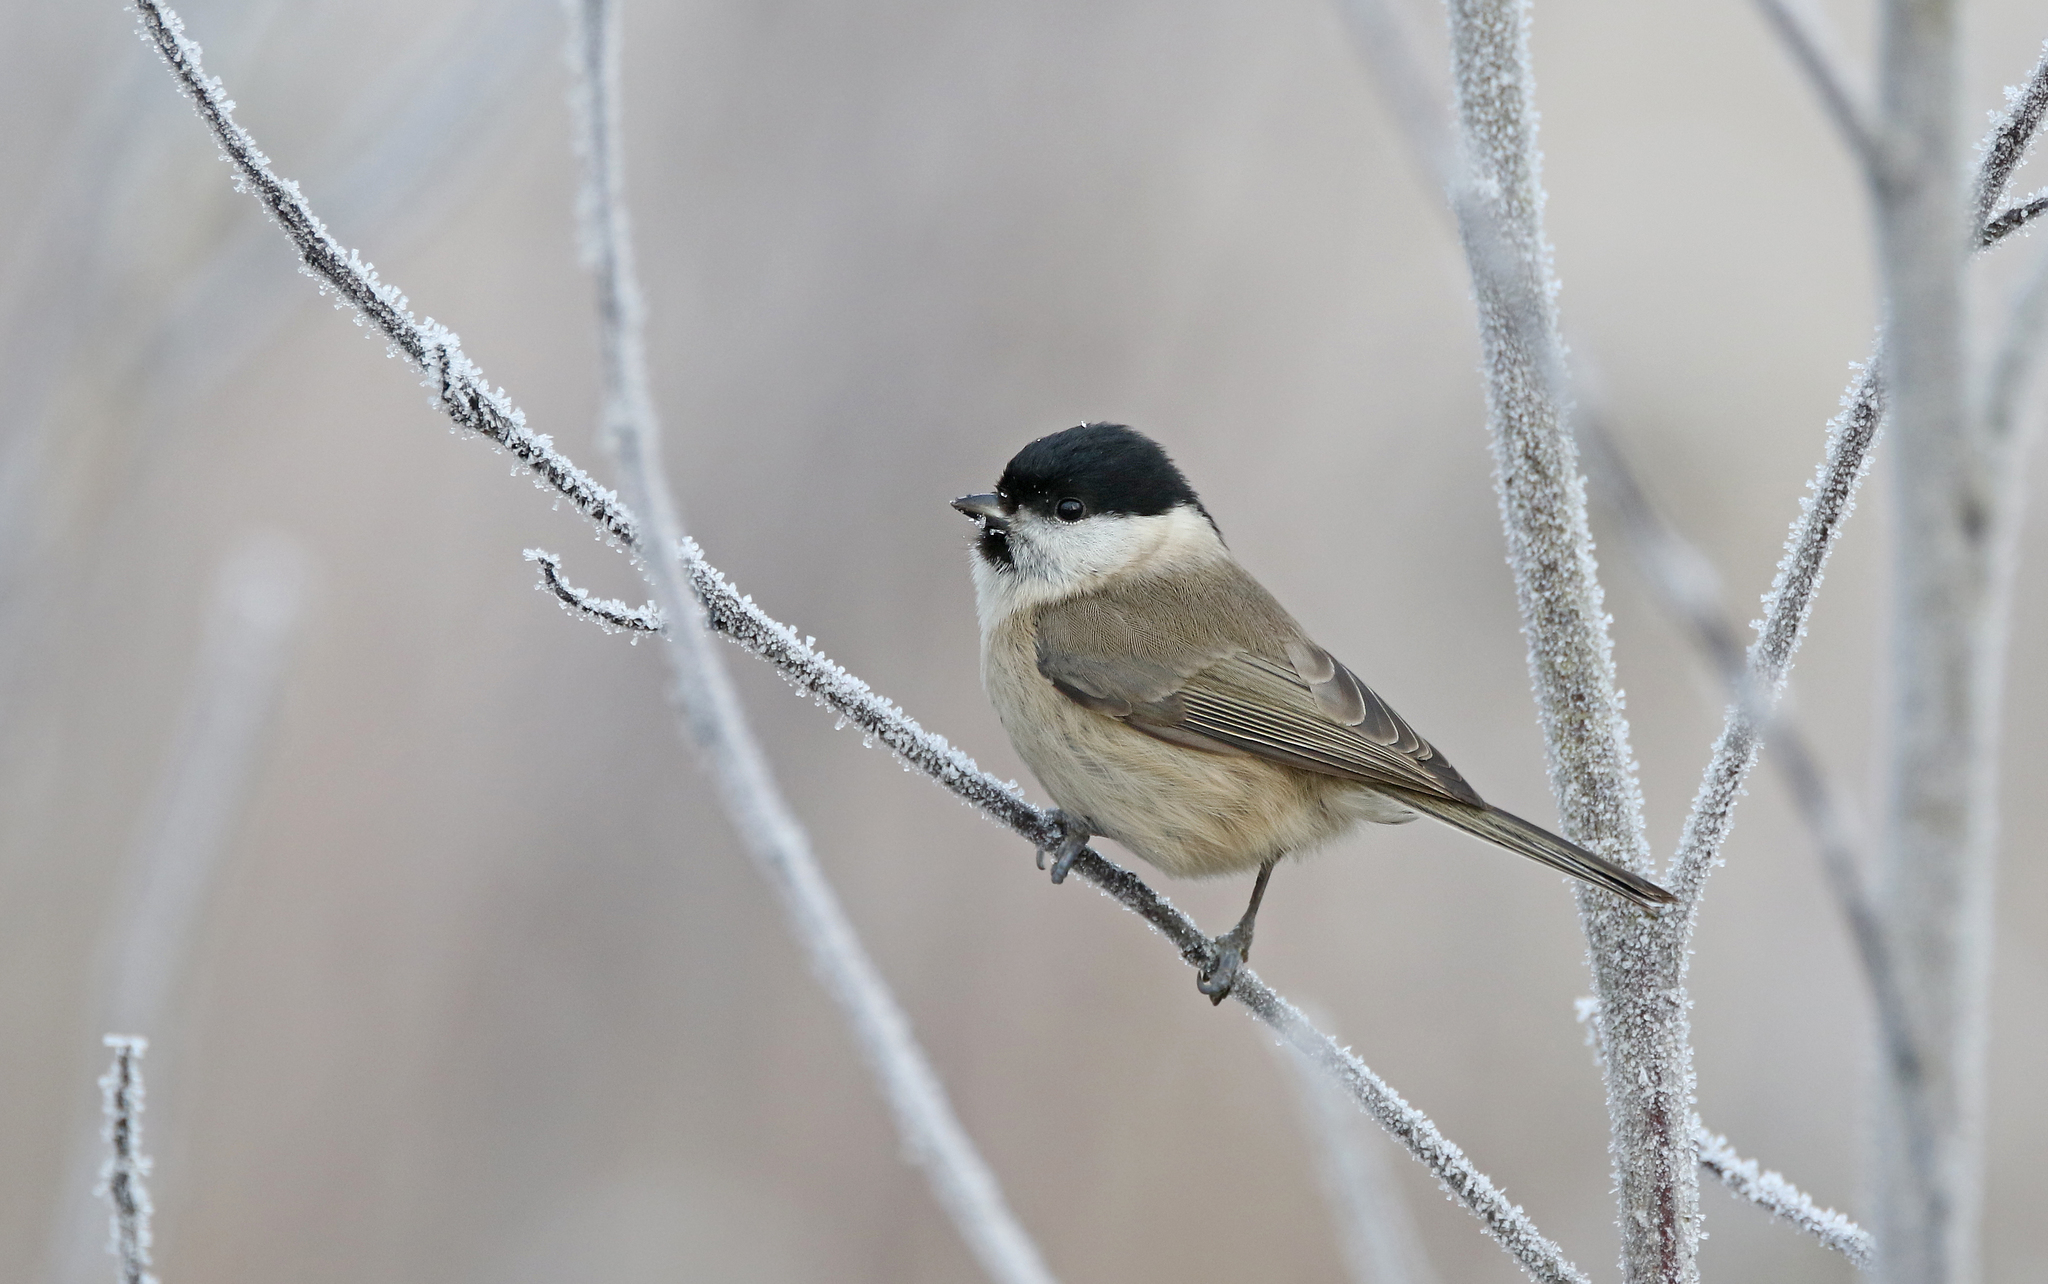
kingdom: Animalia
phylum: Chordata
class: Aves
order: Passeriformes
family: Paridae
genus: Poecile
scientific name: Poecile palustris
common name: Marsh tit
